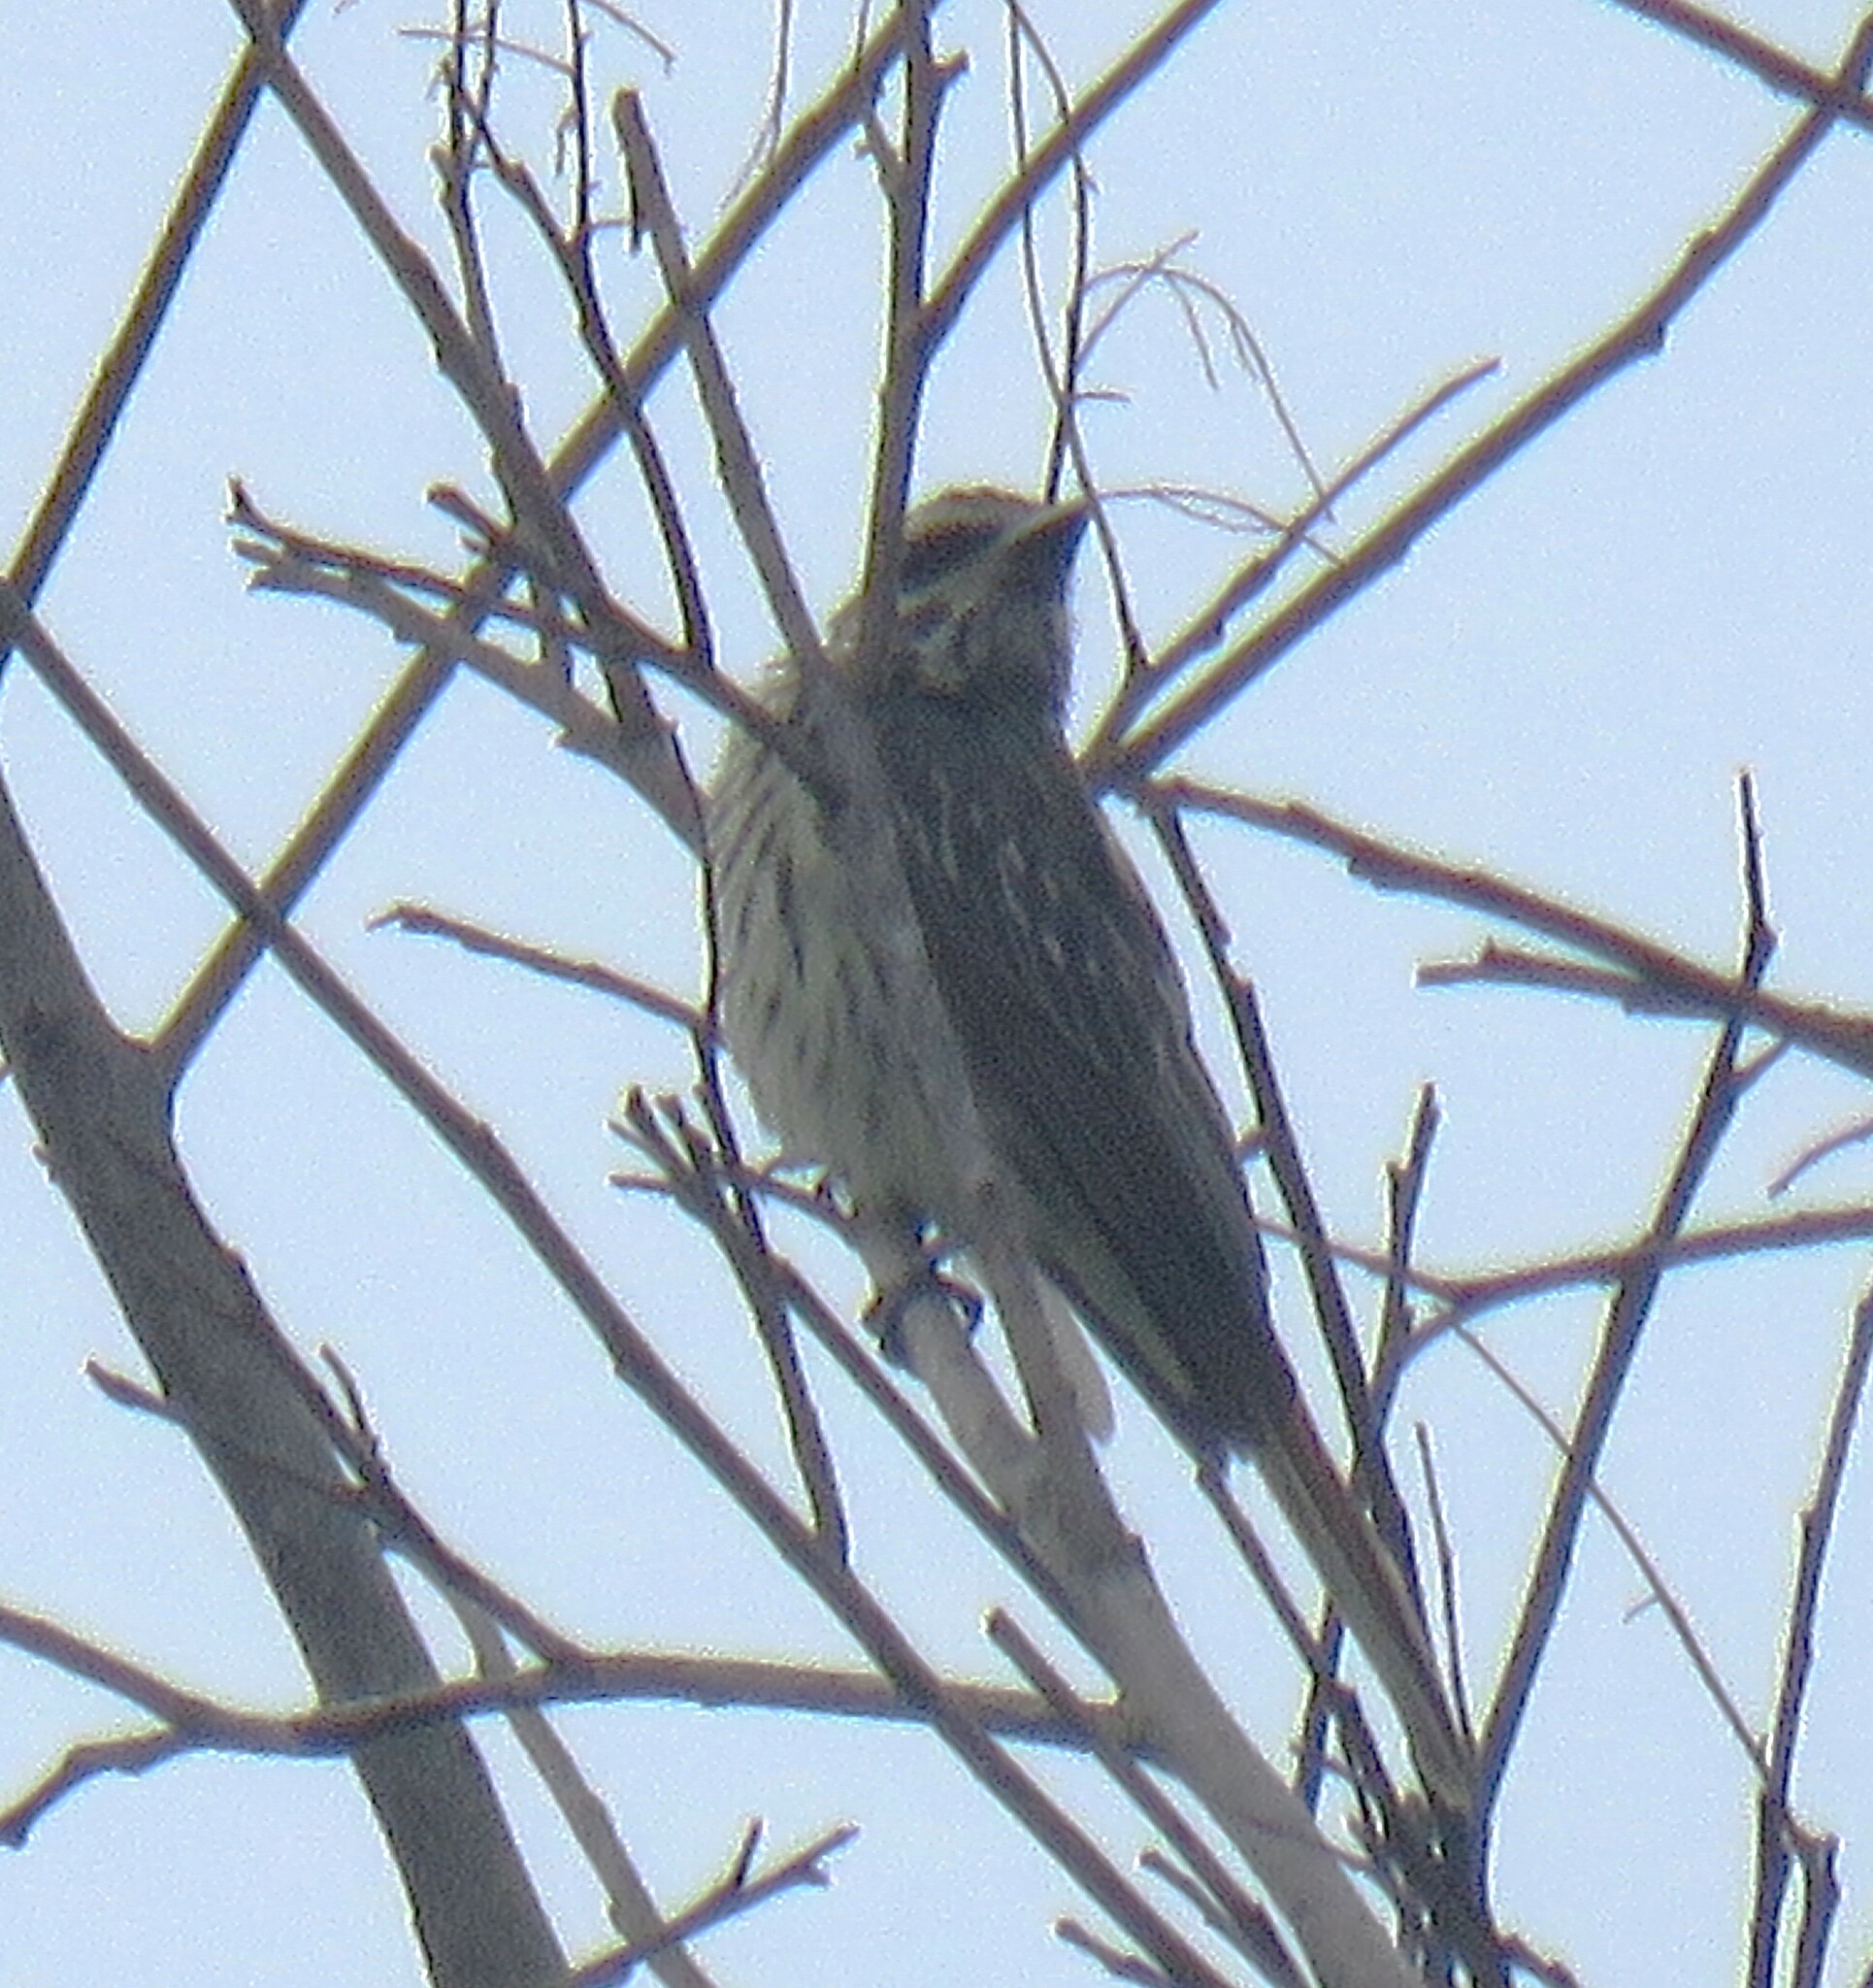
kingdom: Animalia
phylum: Chordata
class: Aves
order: Passeriformes
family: Tyrannidae
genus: Myiodynastes
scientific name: Myiodynastes maculatus
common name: Streaked flycatcher
